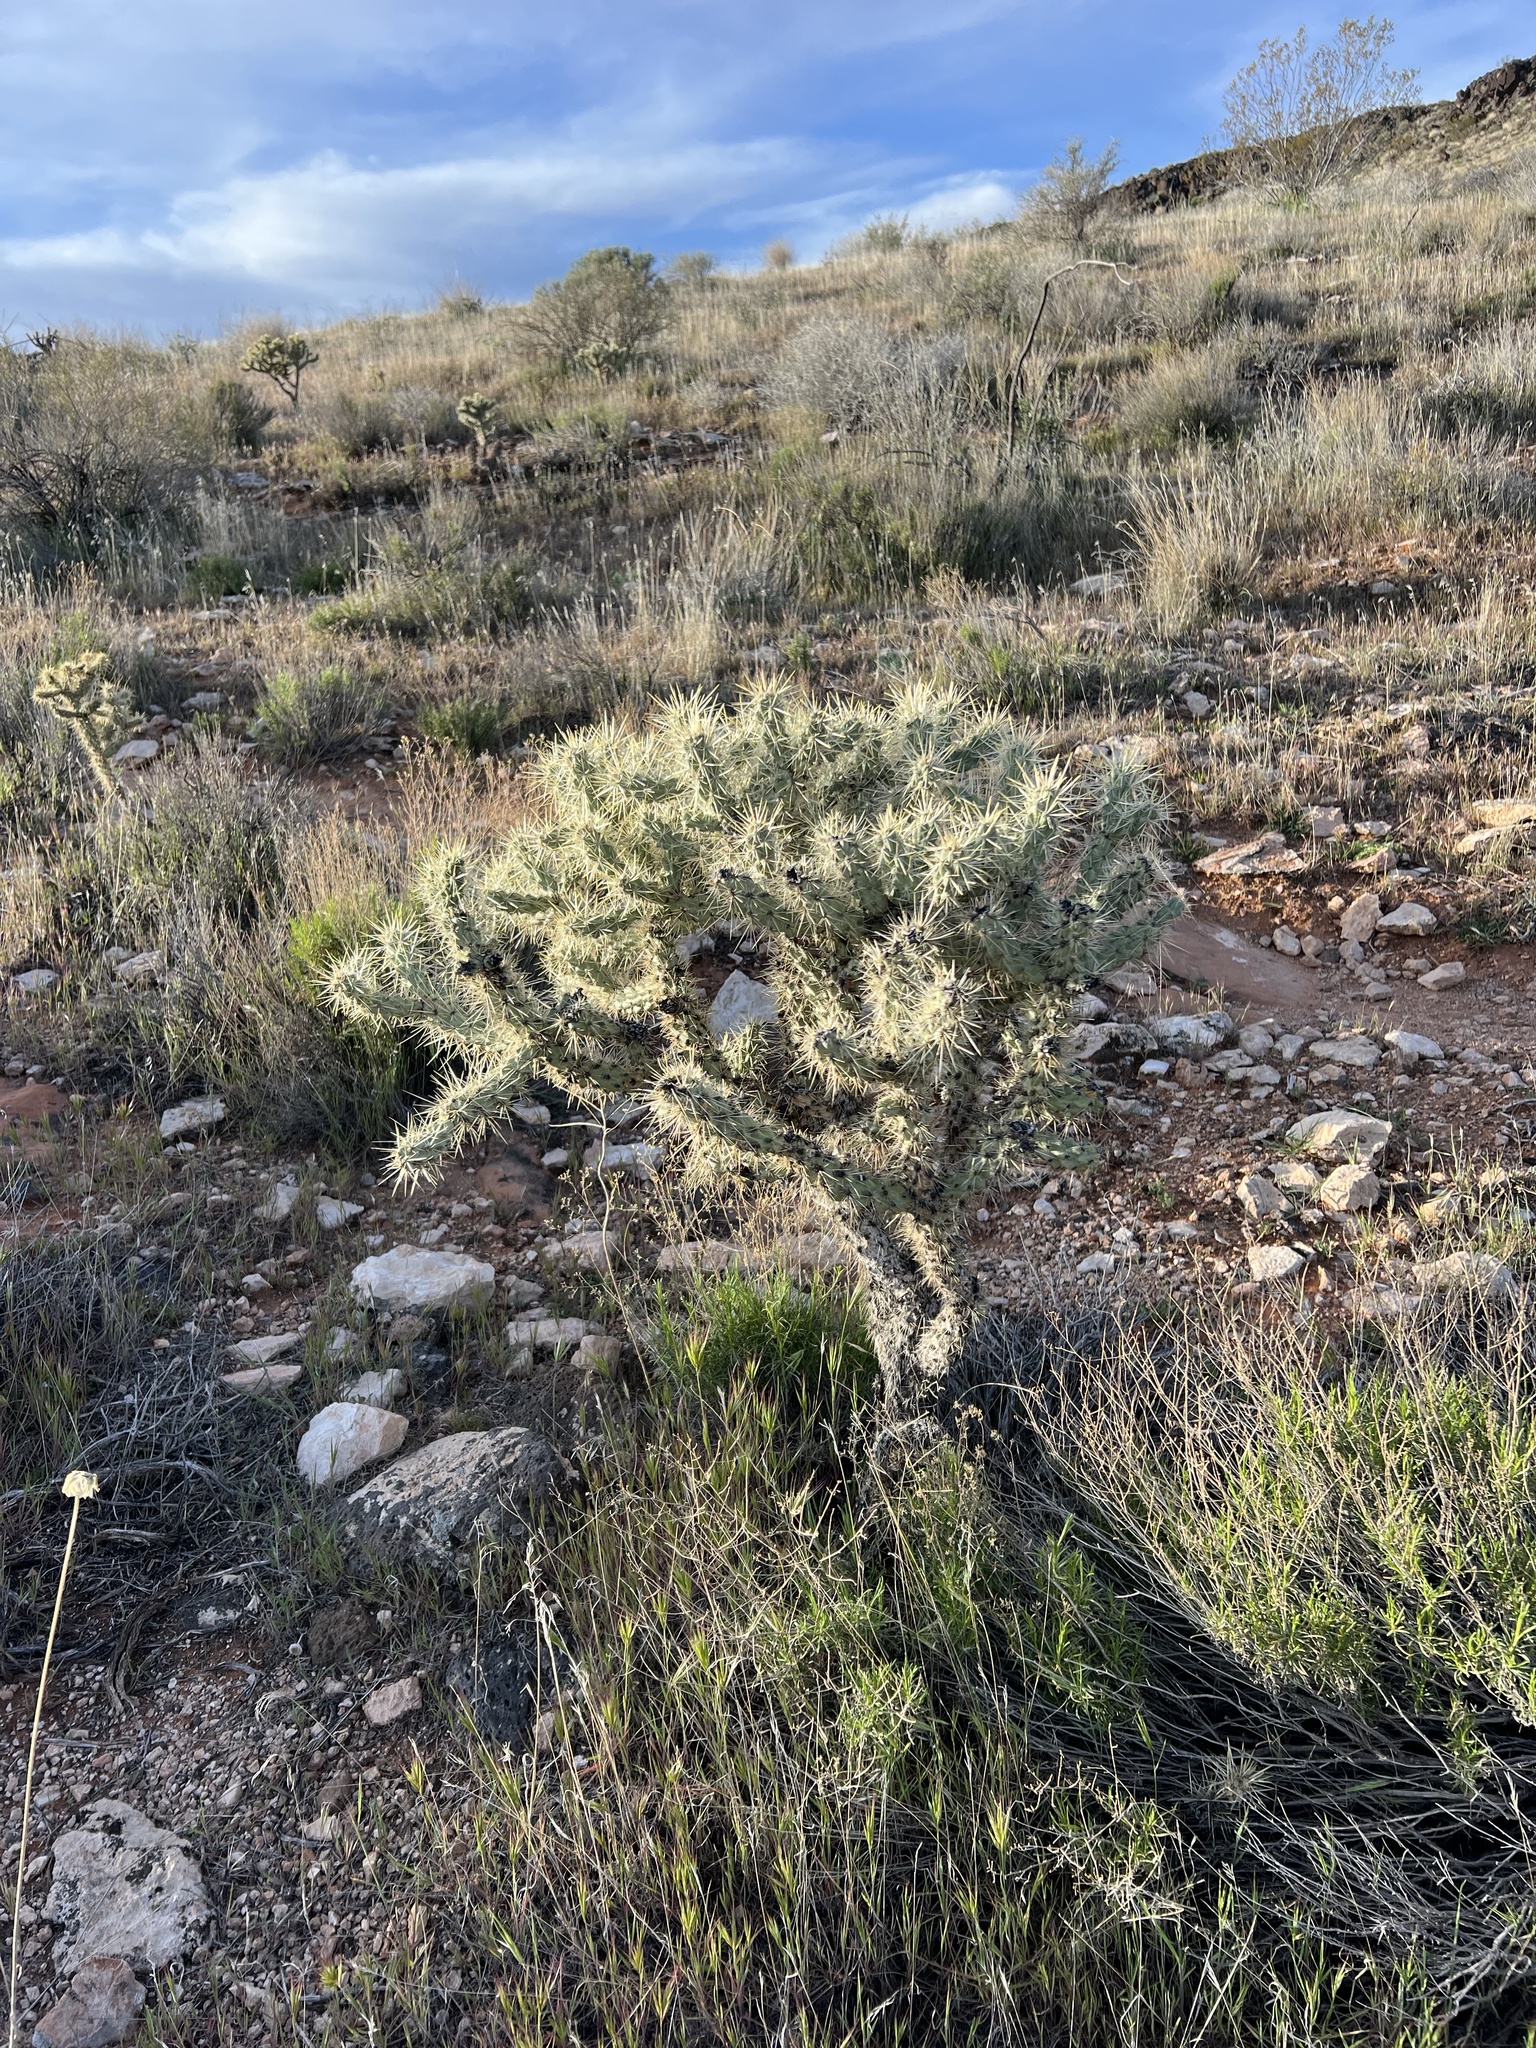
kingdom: Plantae
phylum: Tracheophyta
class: Magnoliopsida
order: Caryophyllales
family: Cactaceae
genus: Cylindropuntia
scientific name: Cylindropuntia echinocarpa
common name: Ground cholla
